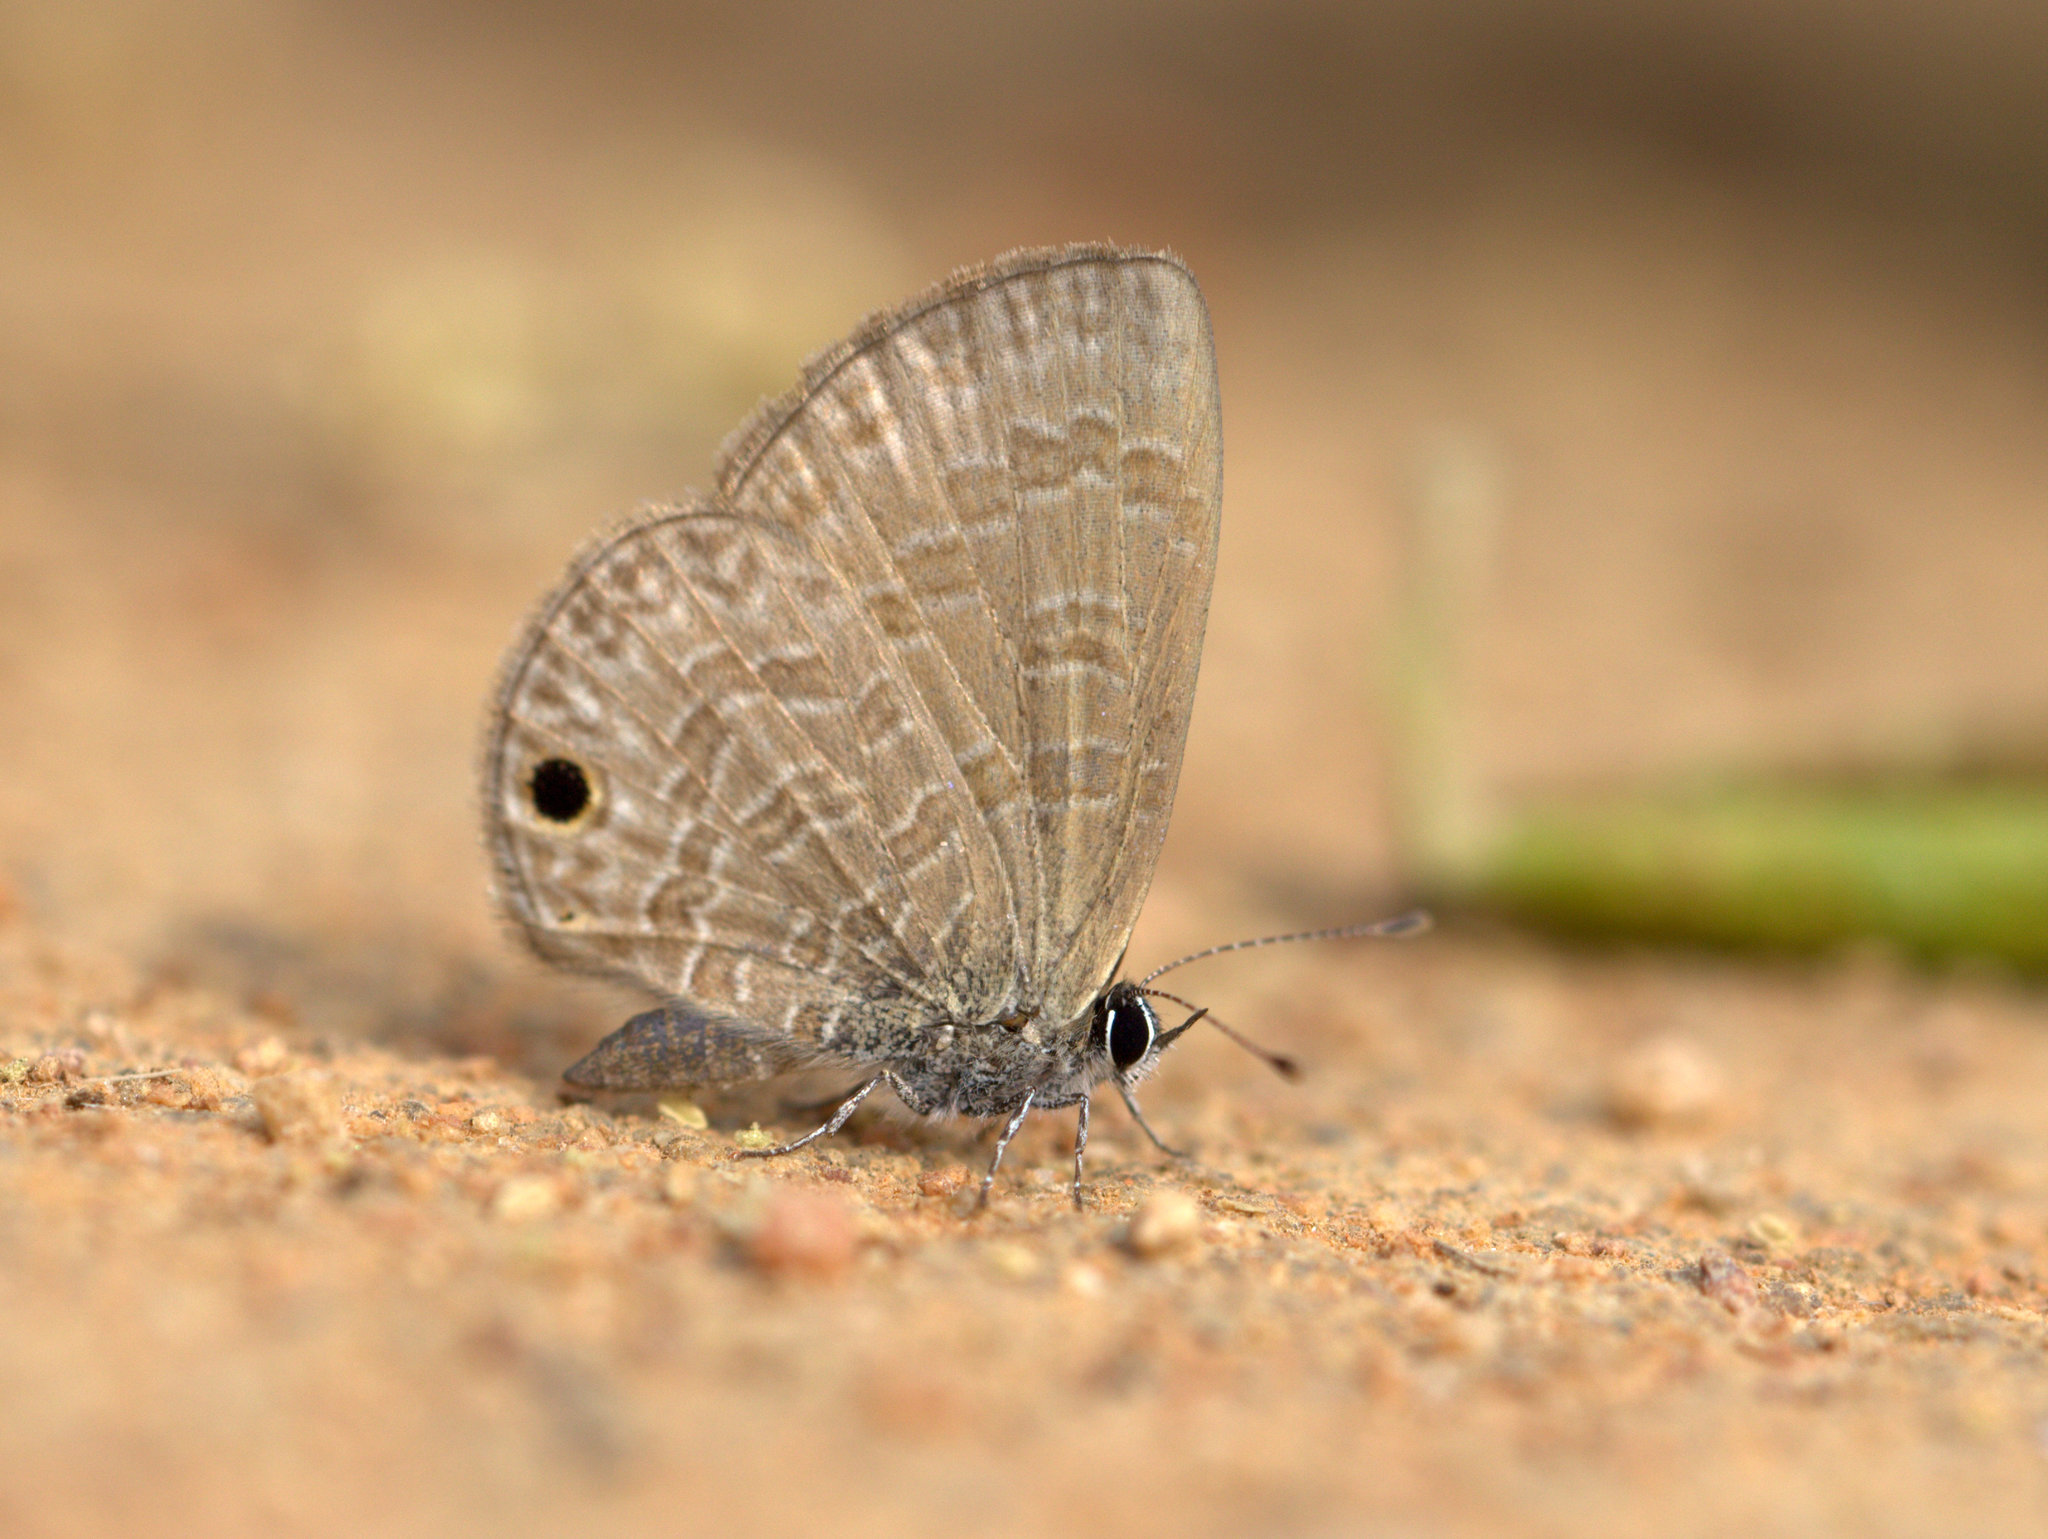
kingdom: Animalia
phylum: Arthropoda
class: Insecta
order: Lepidoptera
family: Lycaenidae
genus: Prosotas
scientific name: Prosotas dubiosa
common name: Tailless lineblue
